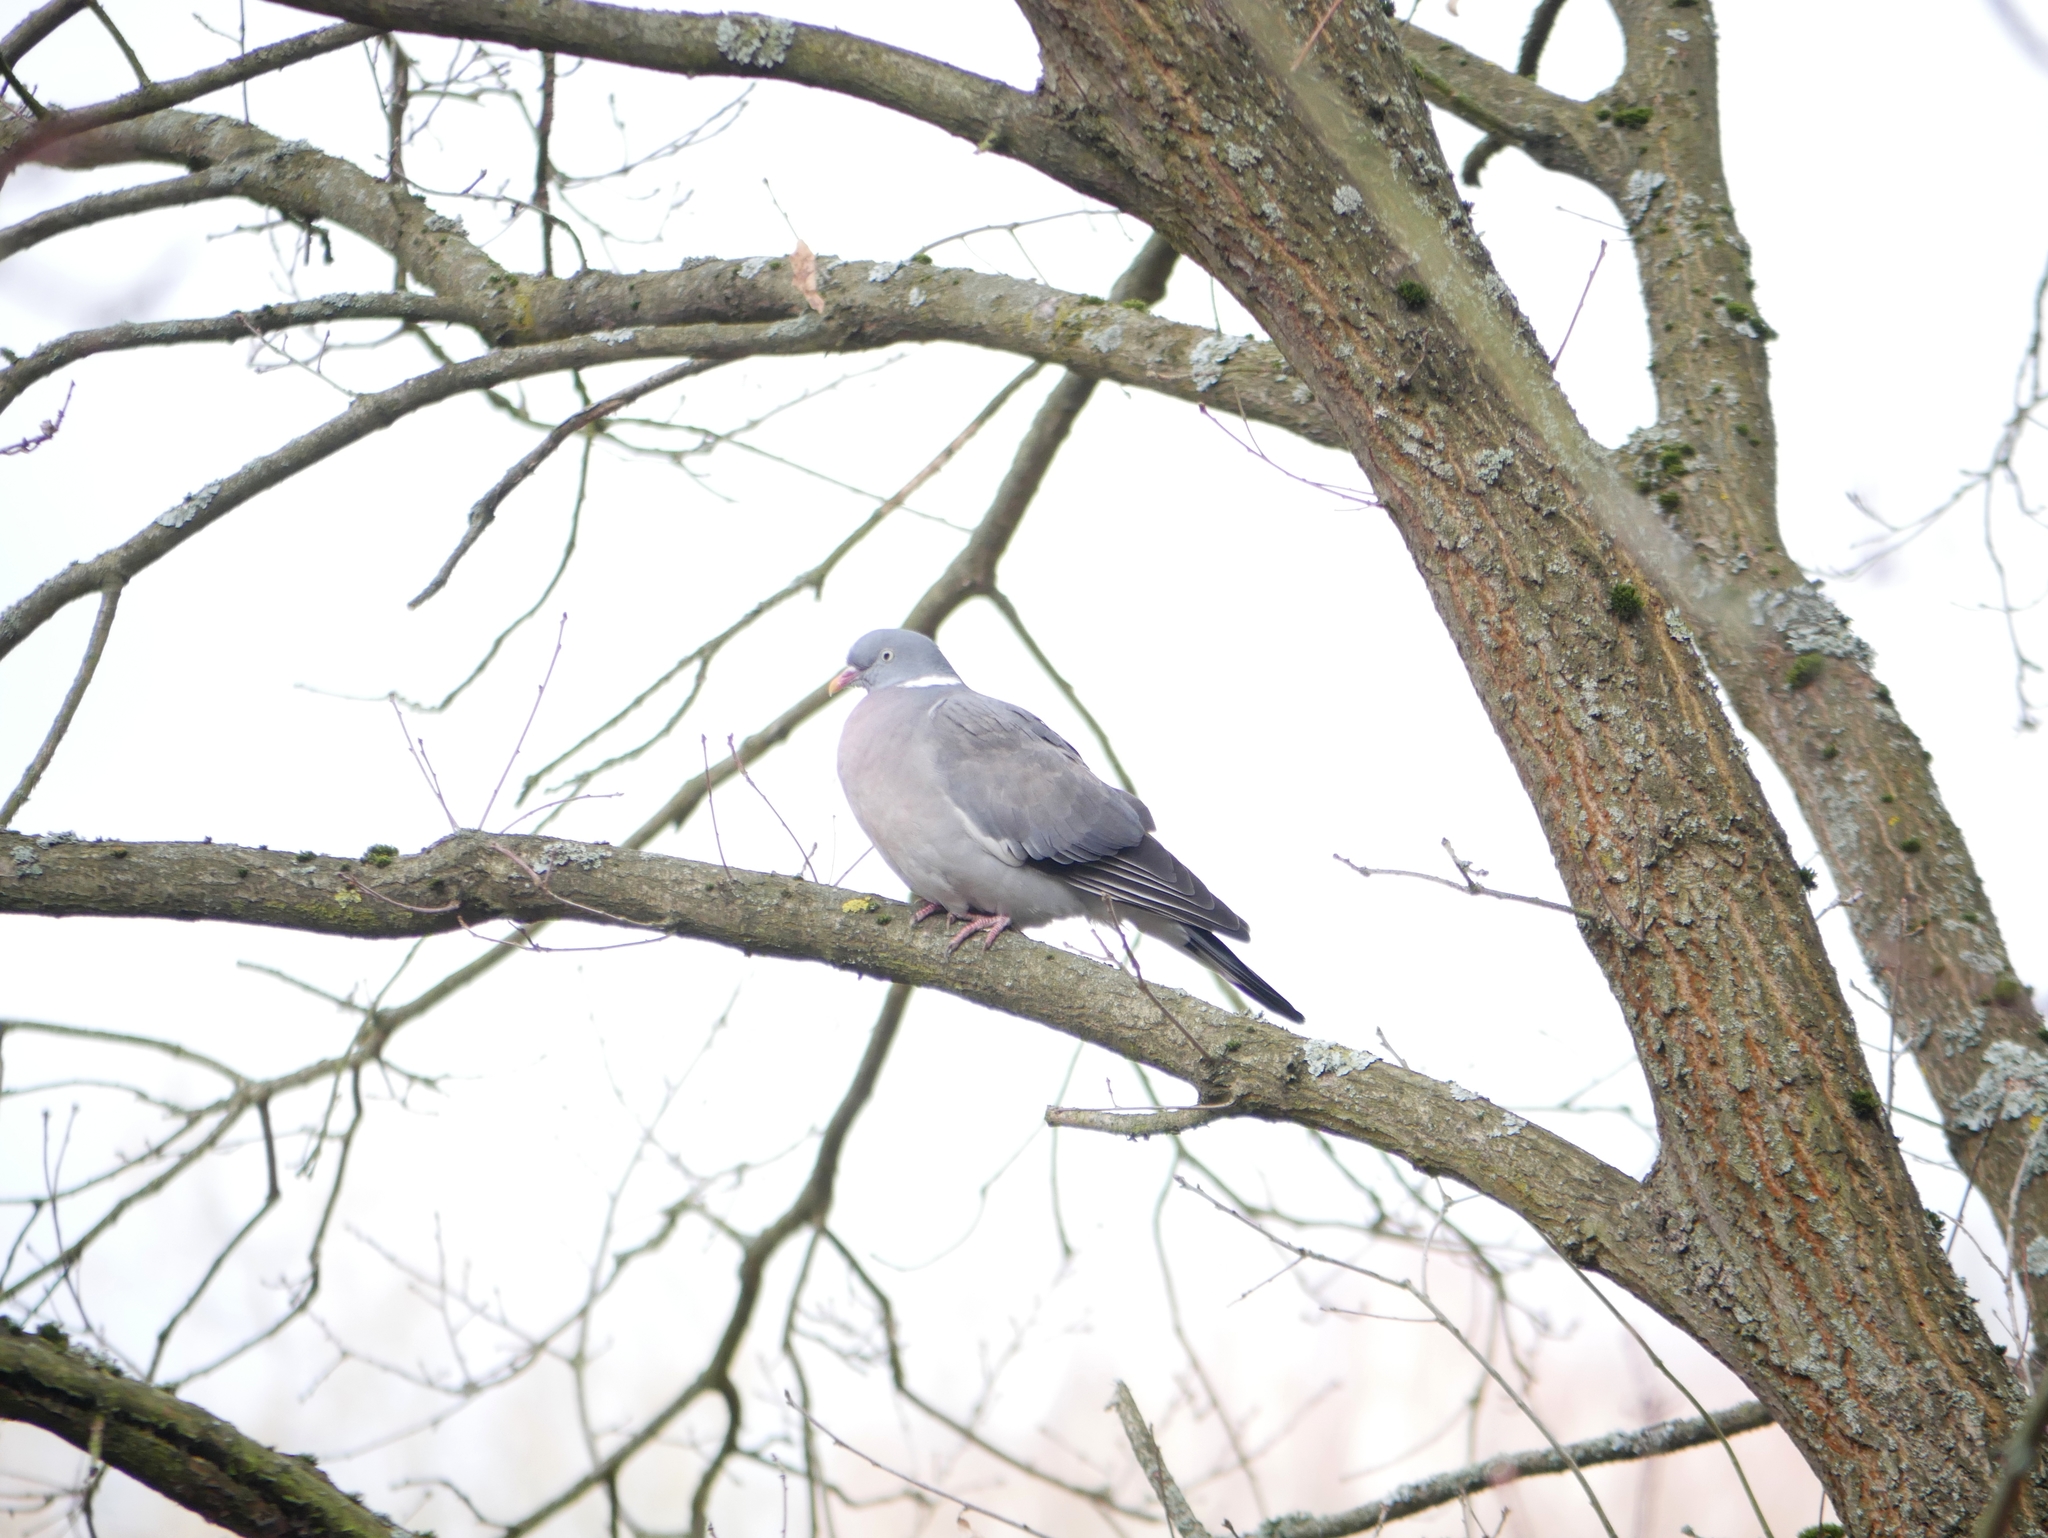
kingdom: Animalia
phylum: Chordata
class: Aves
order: Columbiformes
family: Columbidae
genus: Columba
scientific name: Columba palumbus
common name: Common wood pigeon
